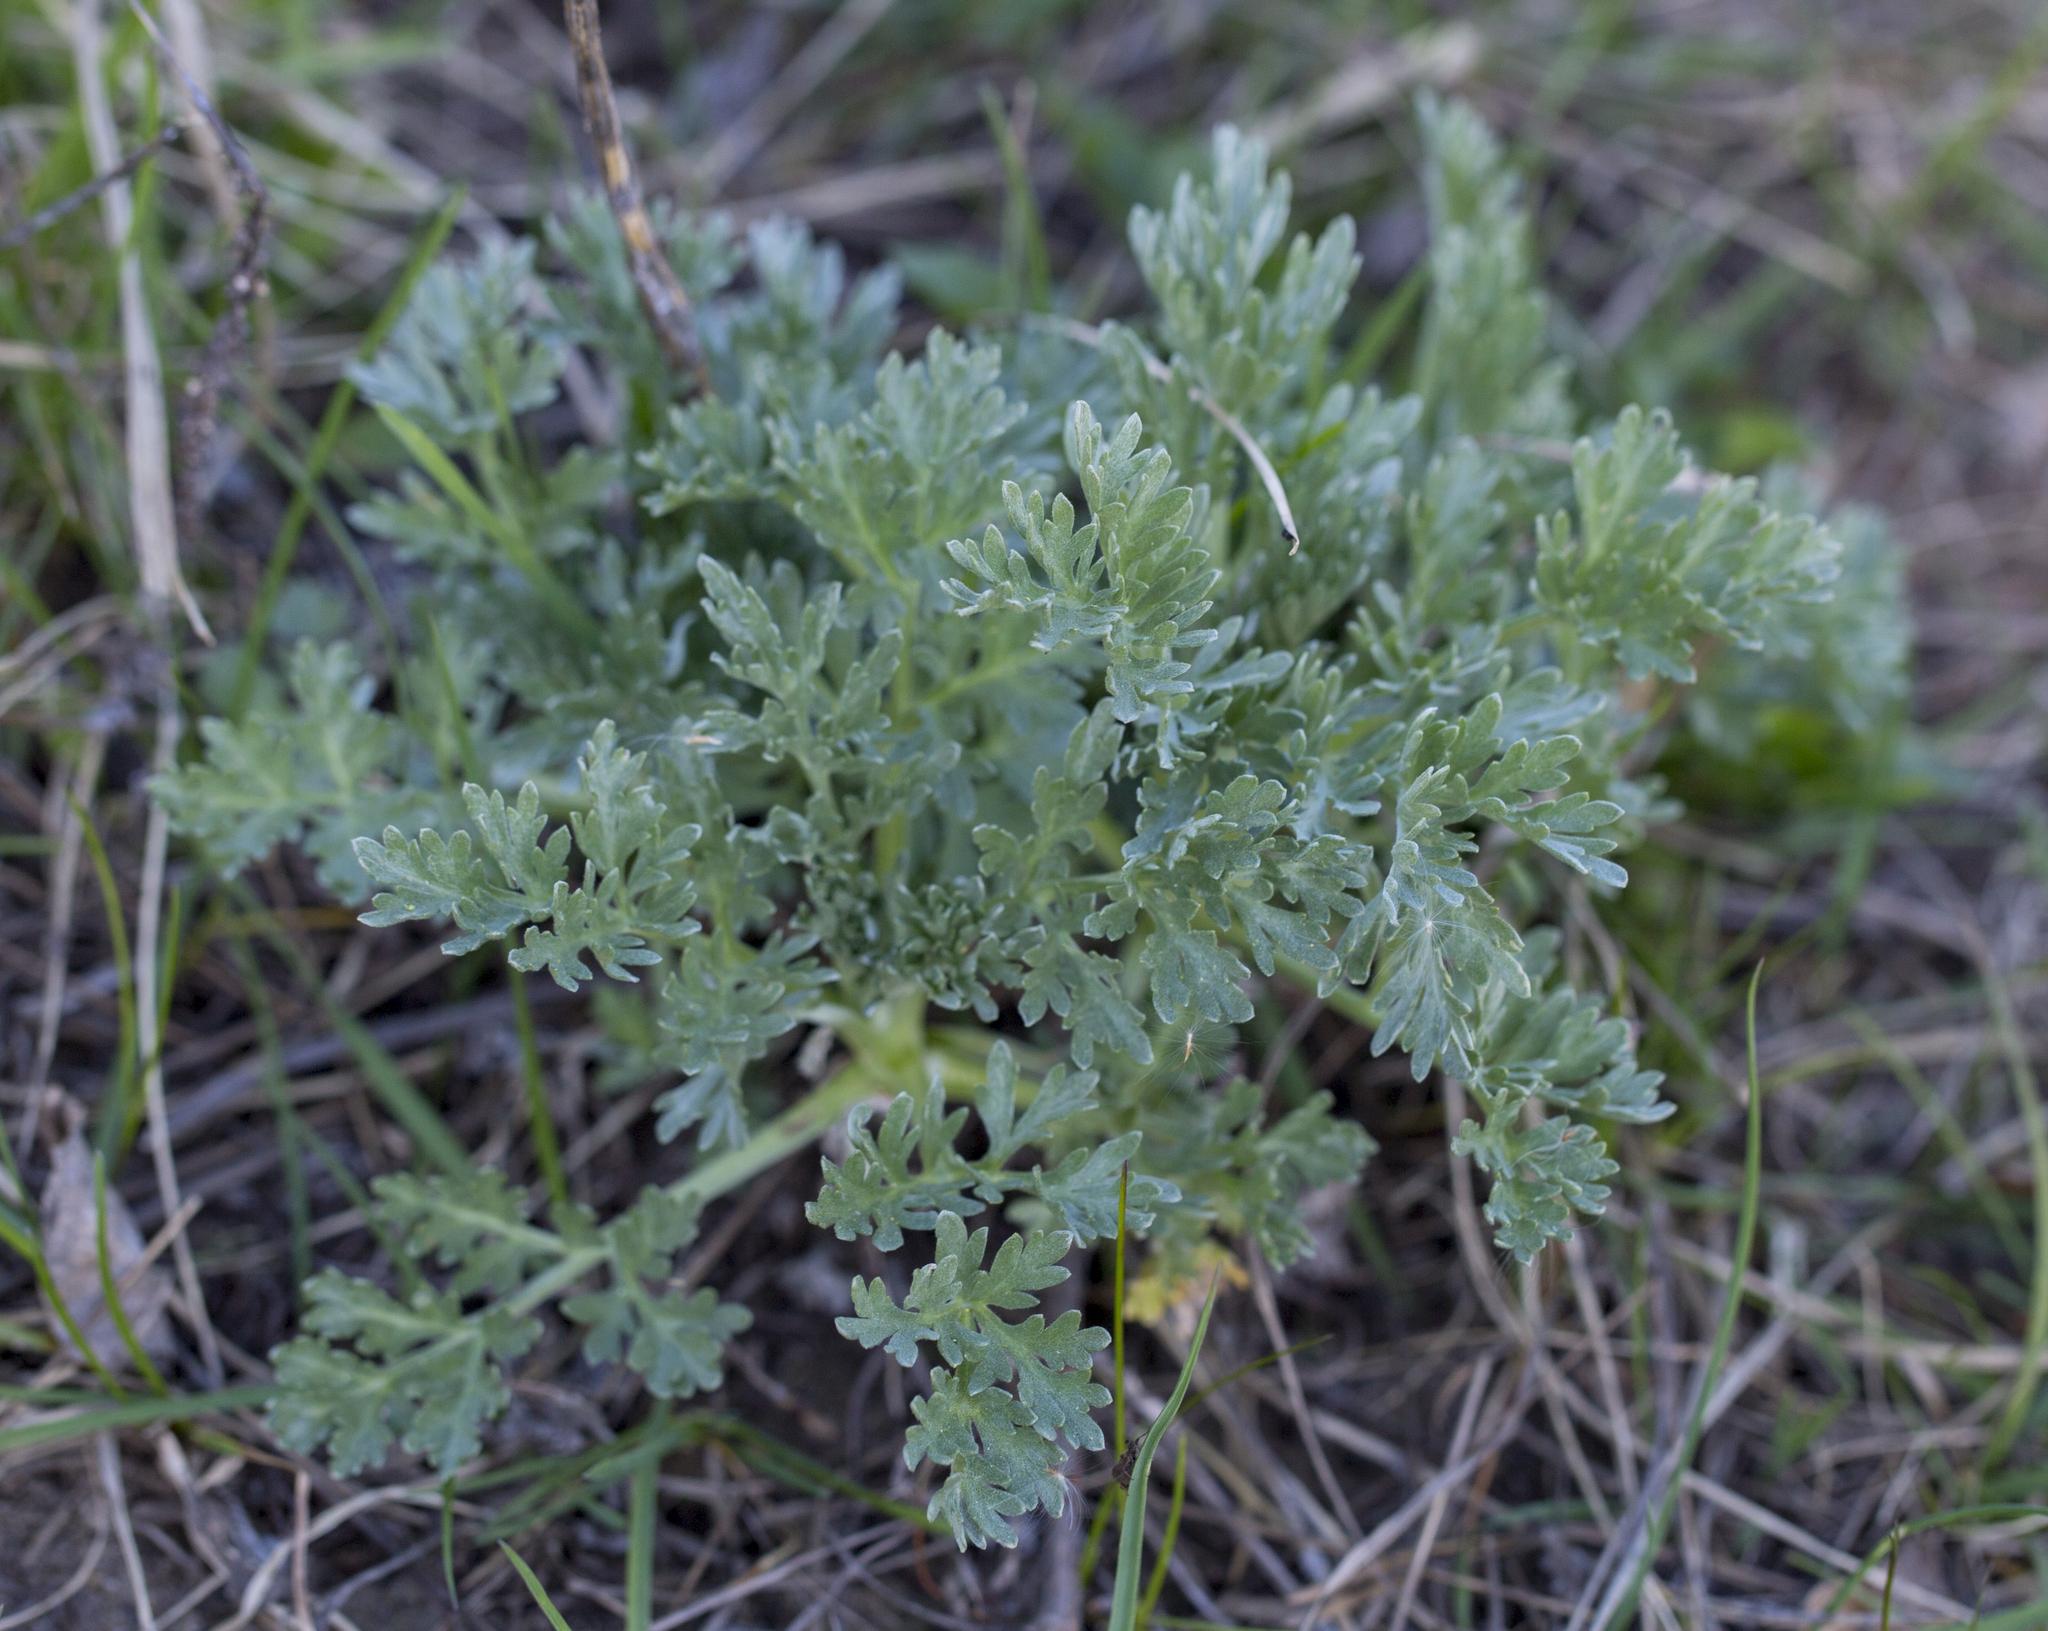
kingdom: Plantae
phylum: Tracheophyta
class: Magnoliopsida
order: Asterales
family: Asteraceae
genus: Artemisia
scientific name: Artemisia absinthium
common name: Wormwood
